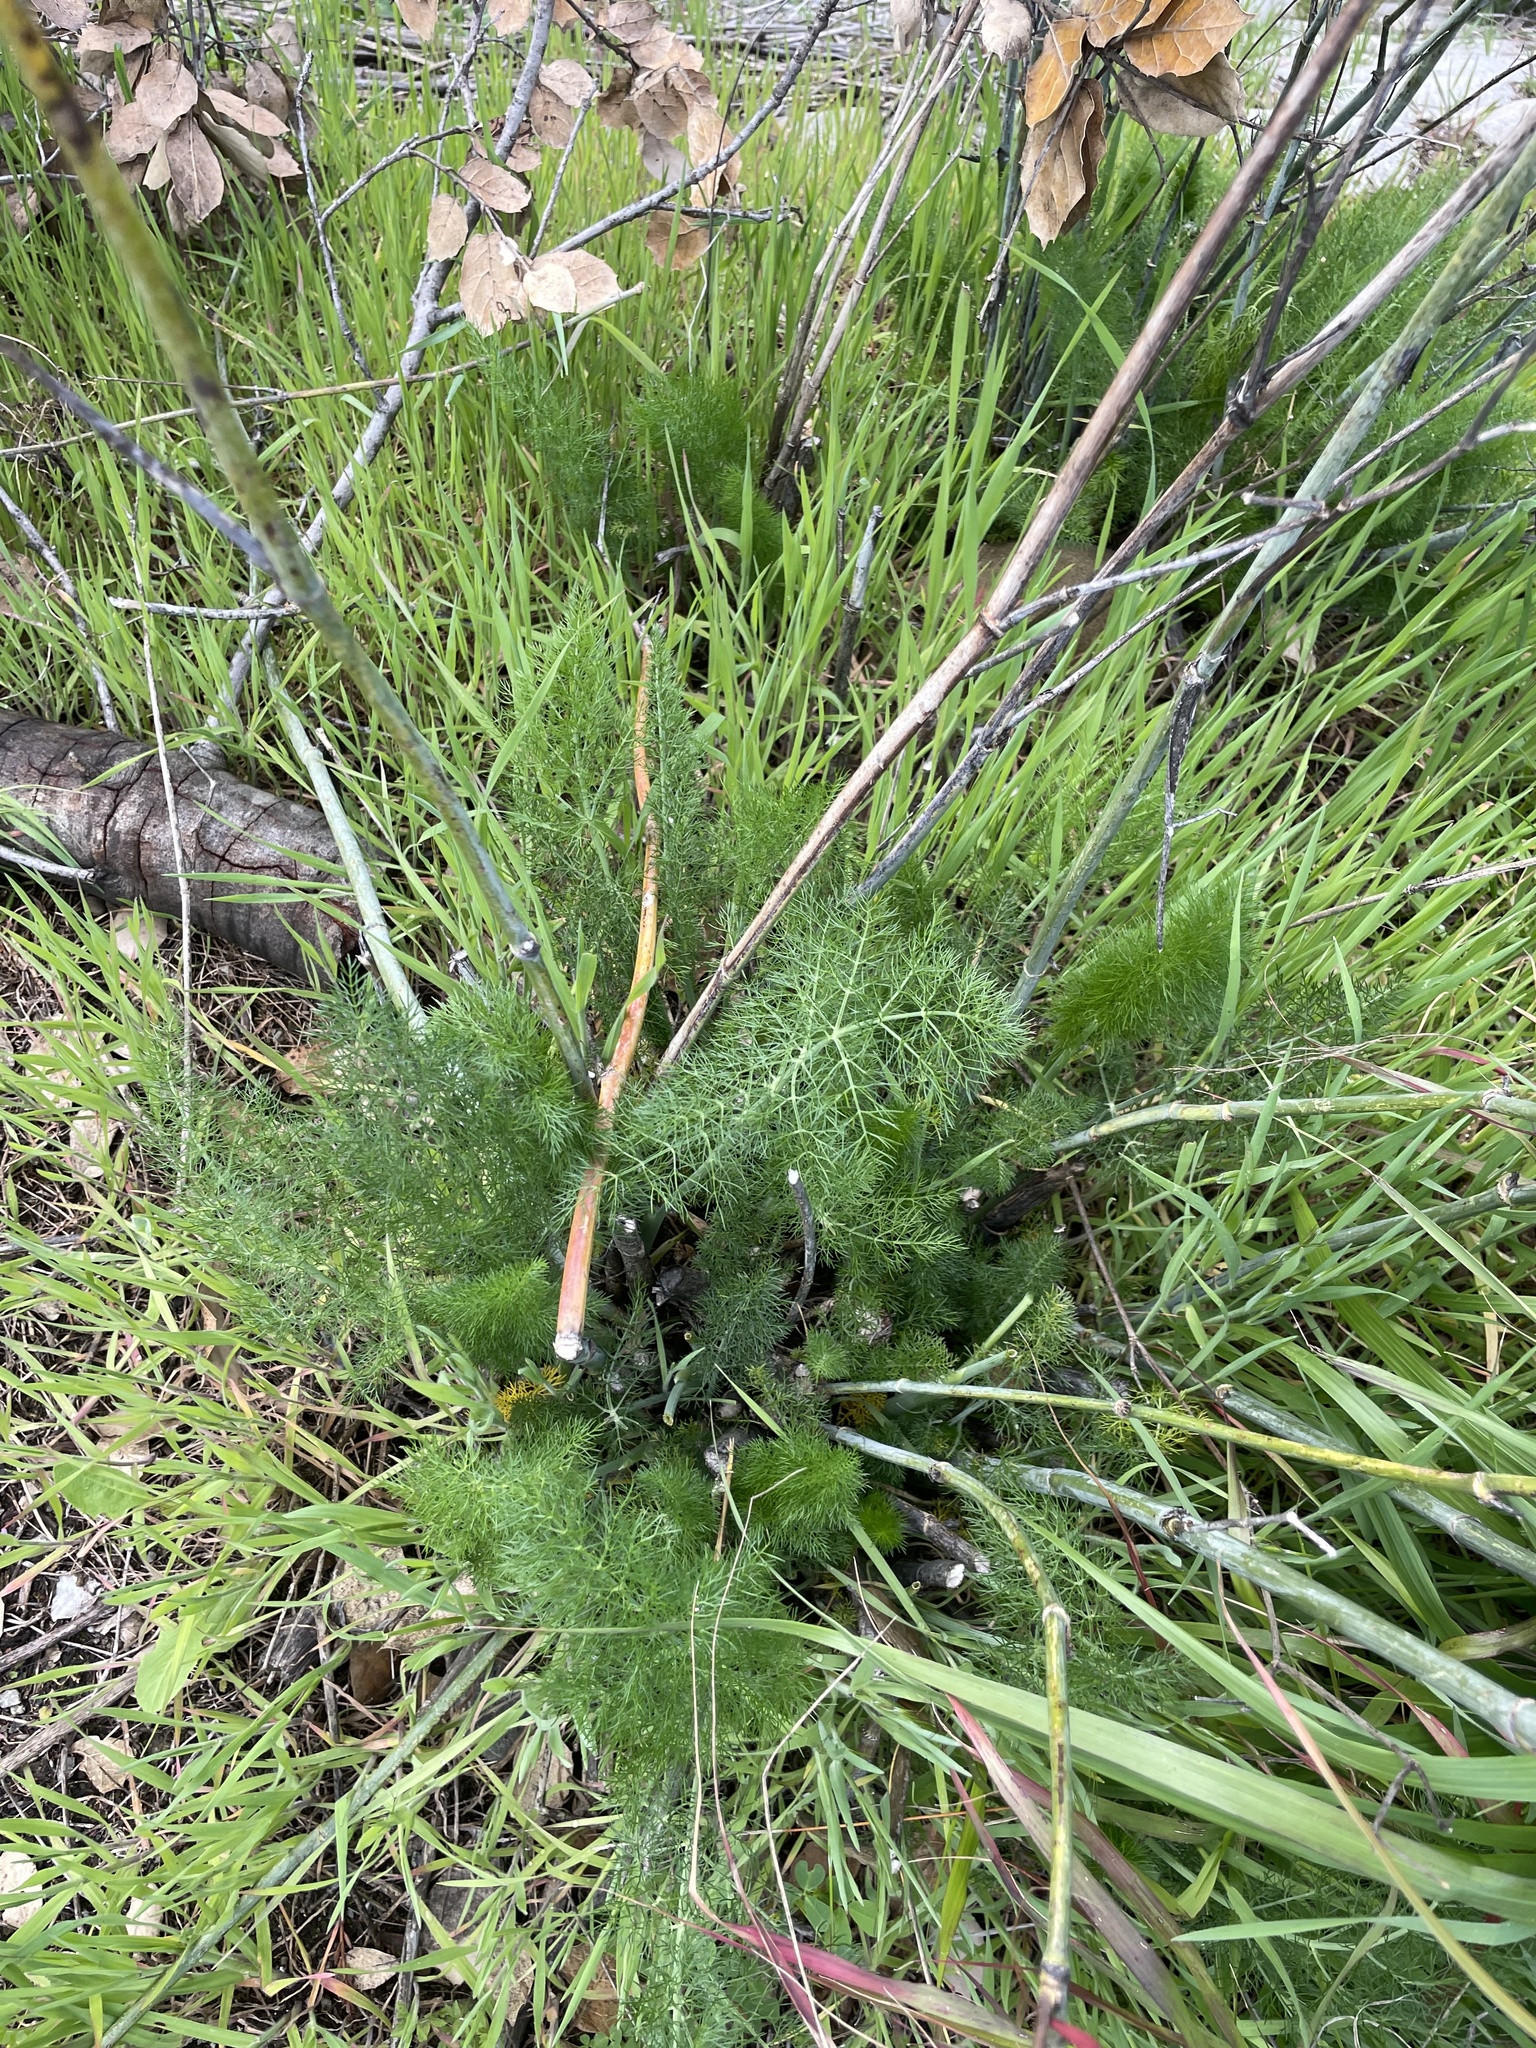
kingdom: Plantae
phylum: Tracheophyta
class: Magnoliopsida
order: Apiales
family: Apiaceae
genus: Foeniculum
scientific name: Foeniculum vulgare
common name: Fennel
